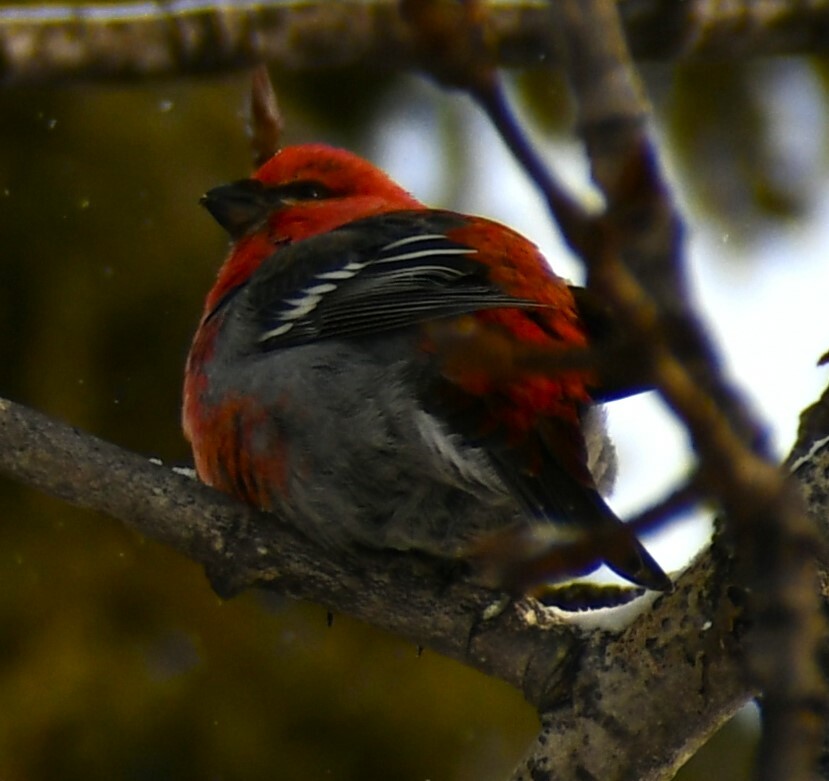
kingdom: Animalia
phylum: Chordata
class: Aves
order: Passeriformes
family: Fringillidae
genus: Pinicola
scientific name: Pinicola enucleator
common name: Pine grosbeak
